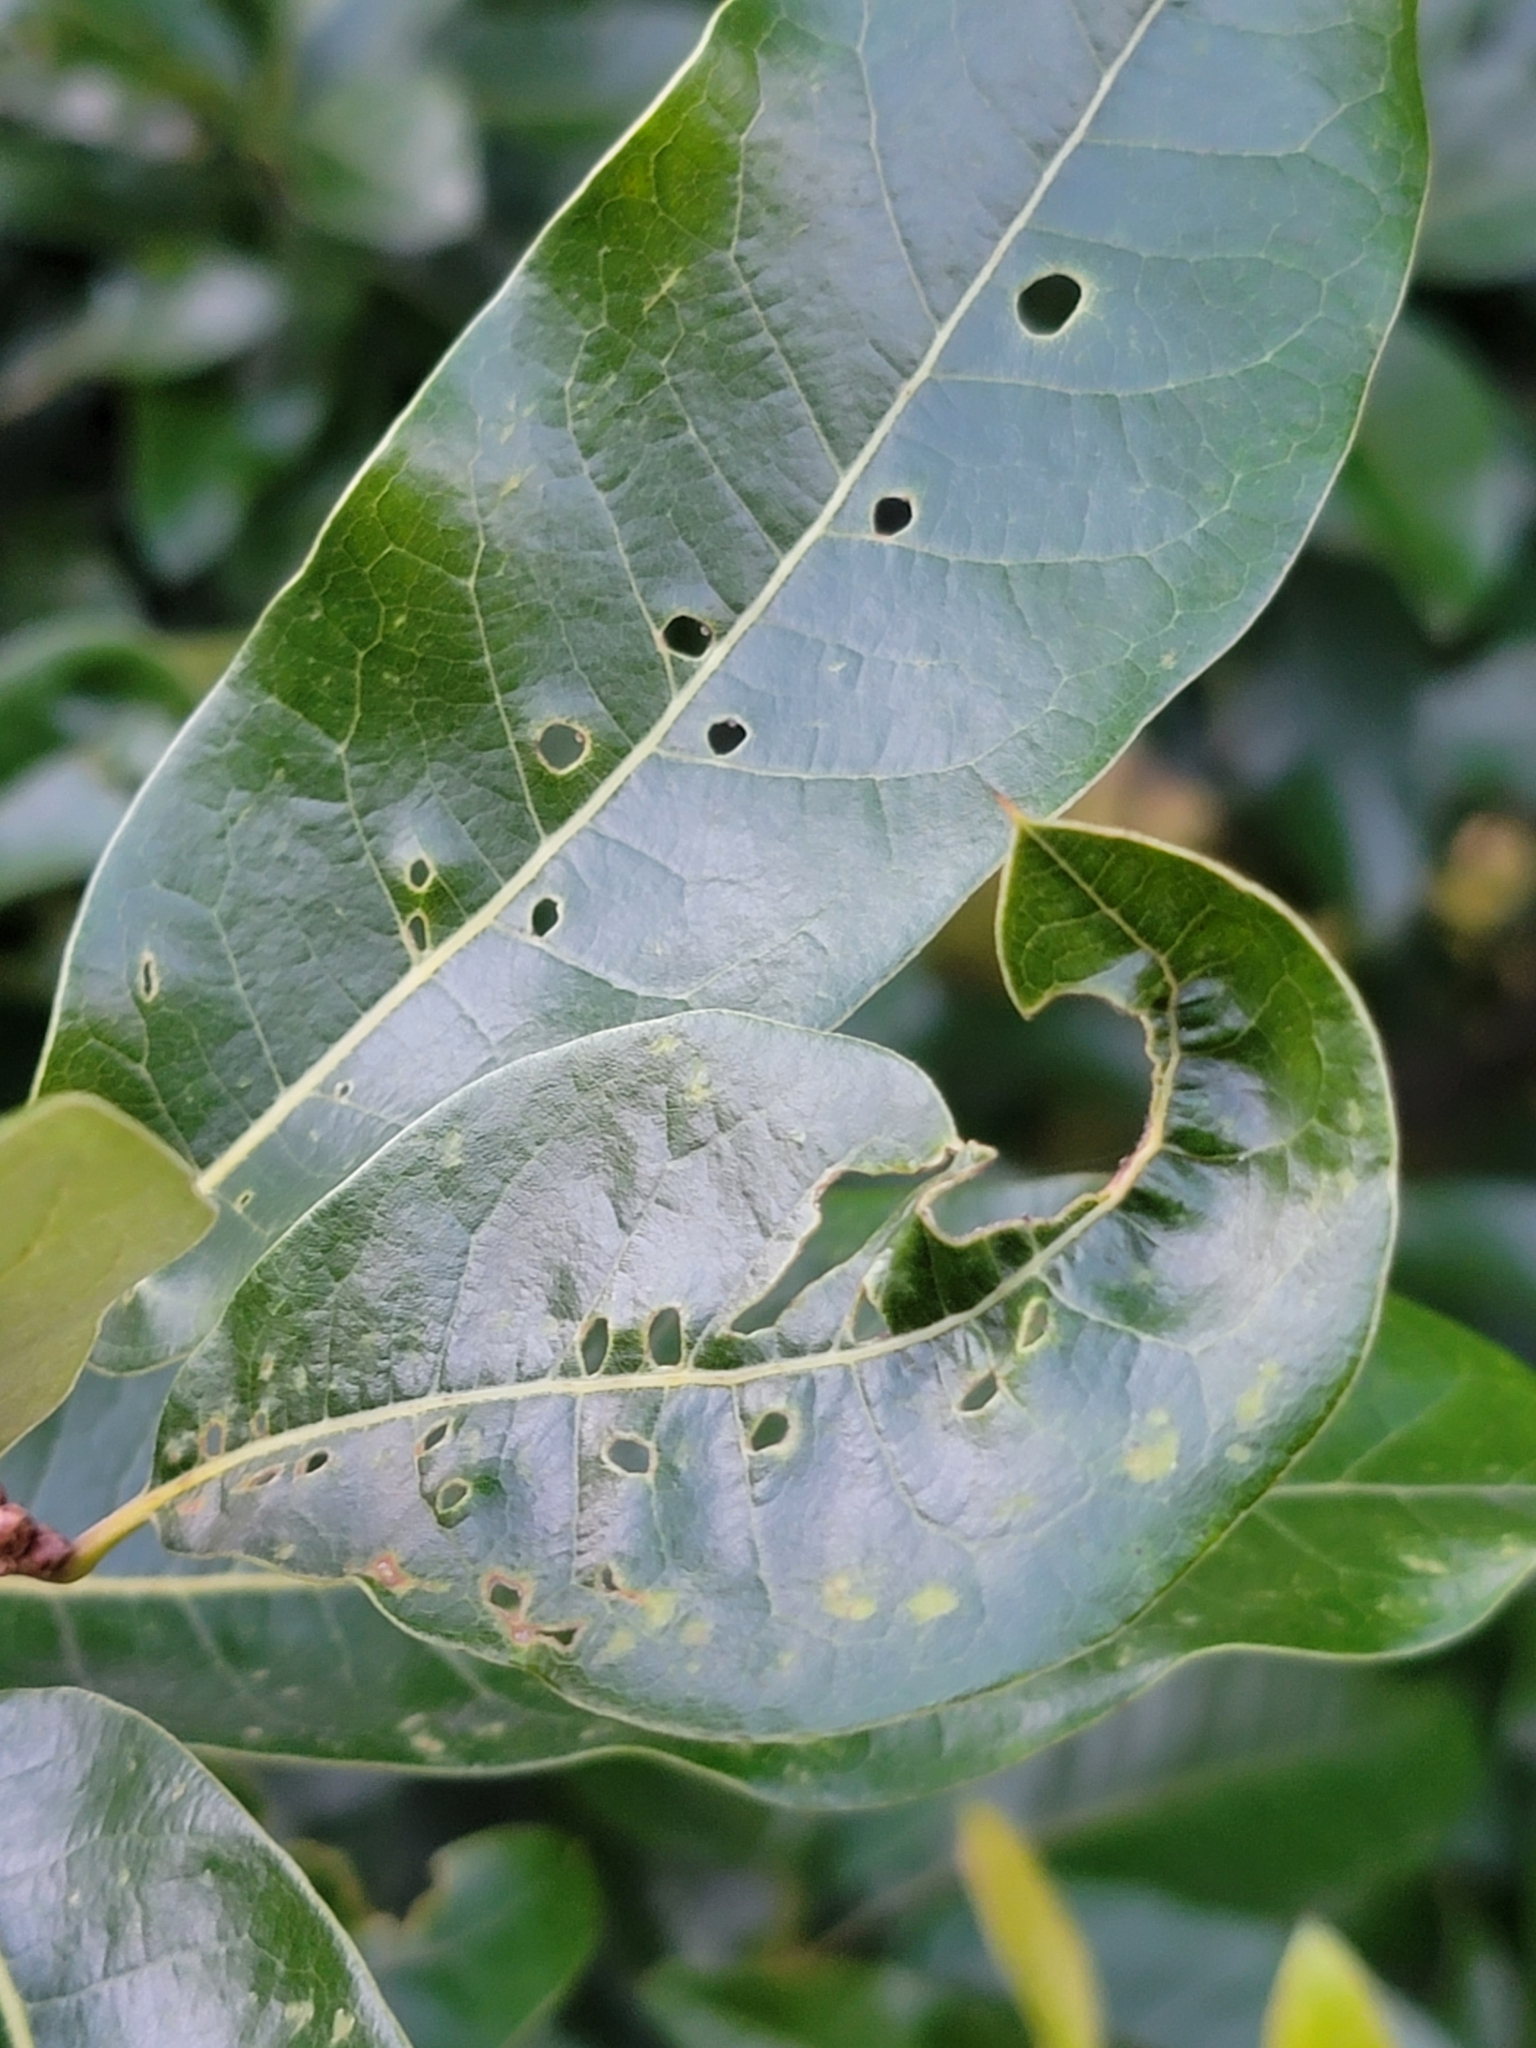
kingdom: Animalia
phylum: Arthropoda
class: Insecta
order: Diptera
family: Agromyzidae
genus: Japanagromyza
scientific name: Japanagromyza viridula
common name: Oak shothole leafminer
